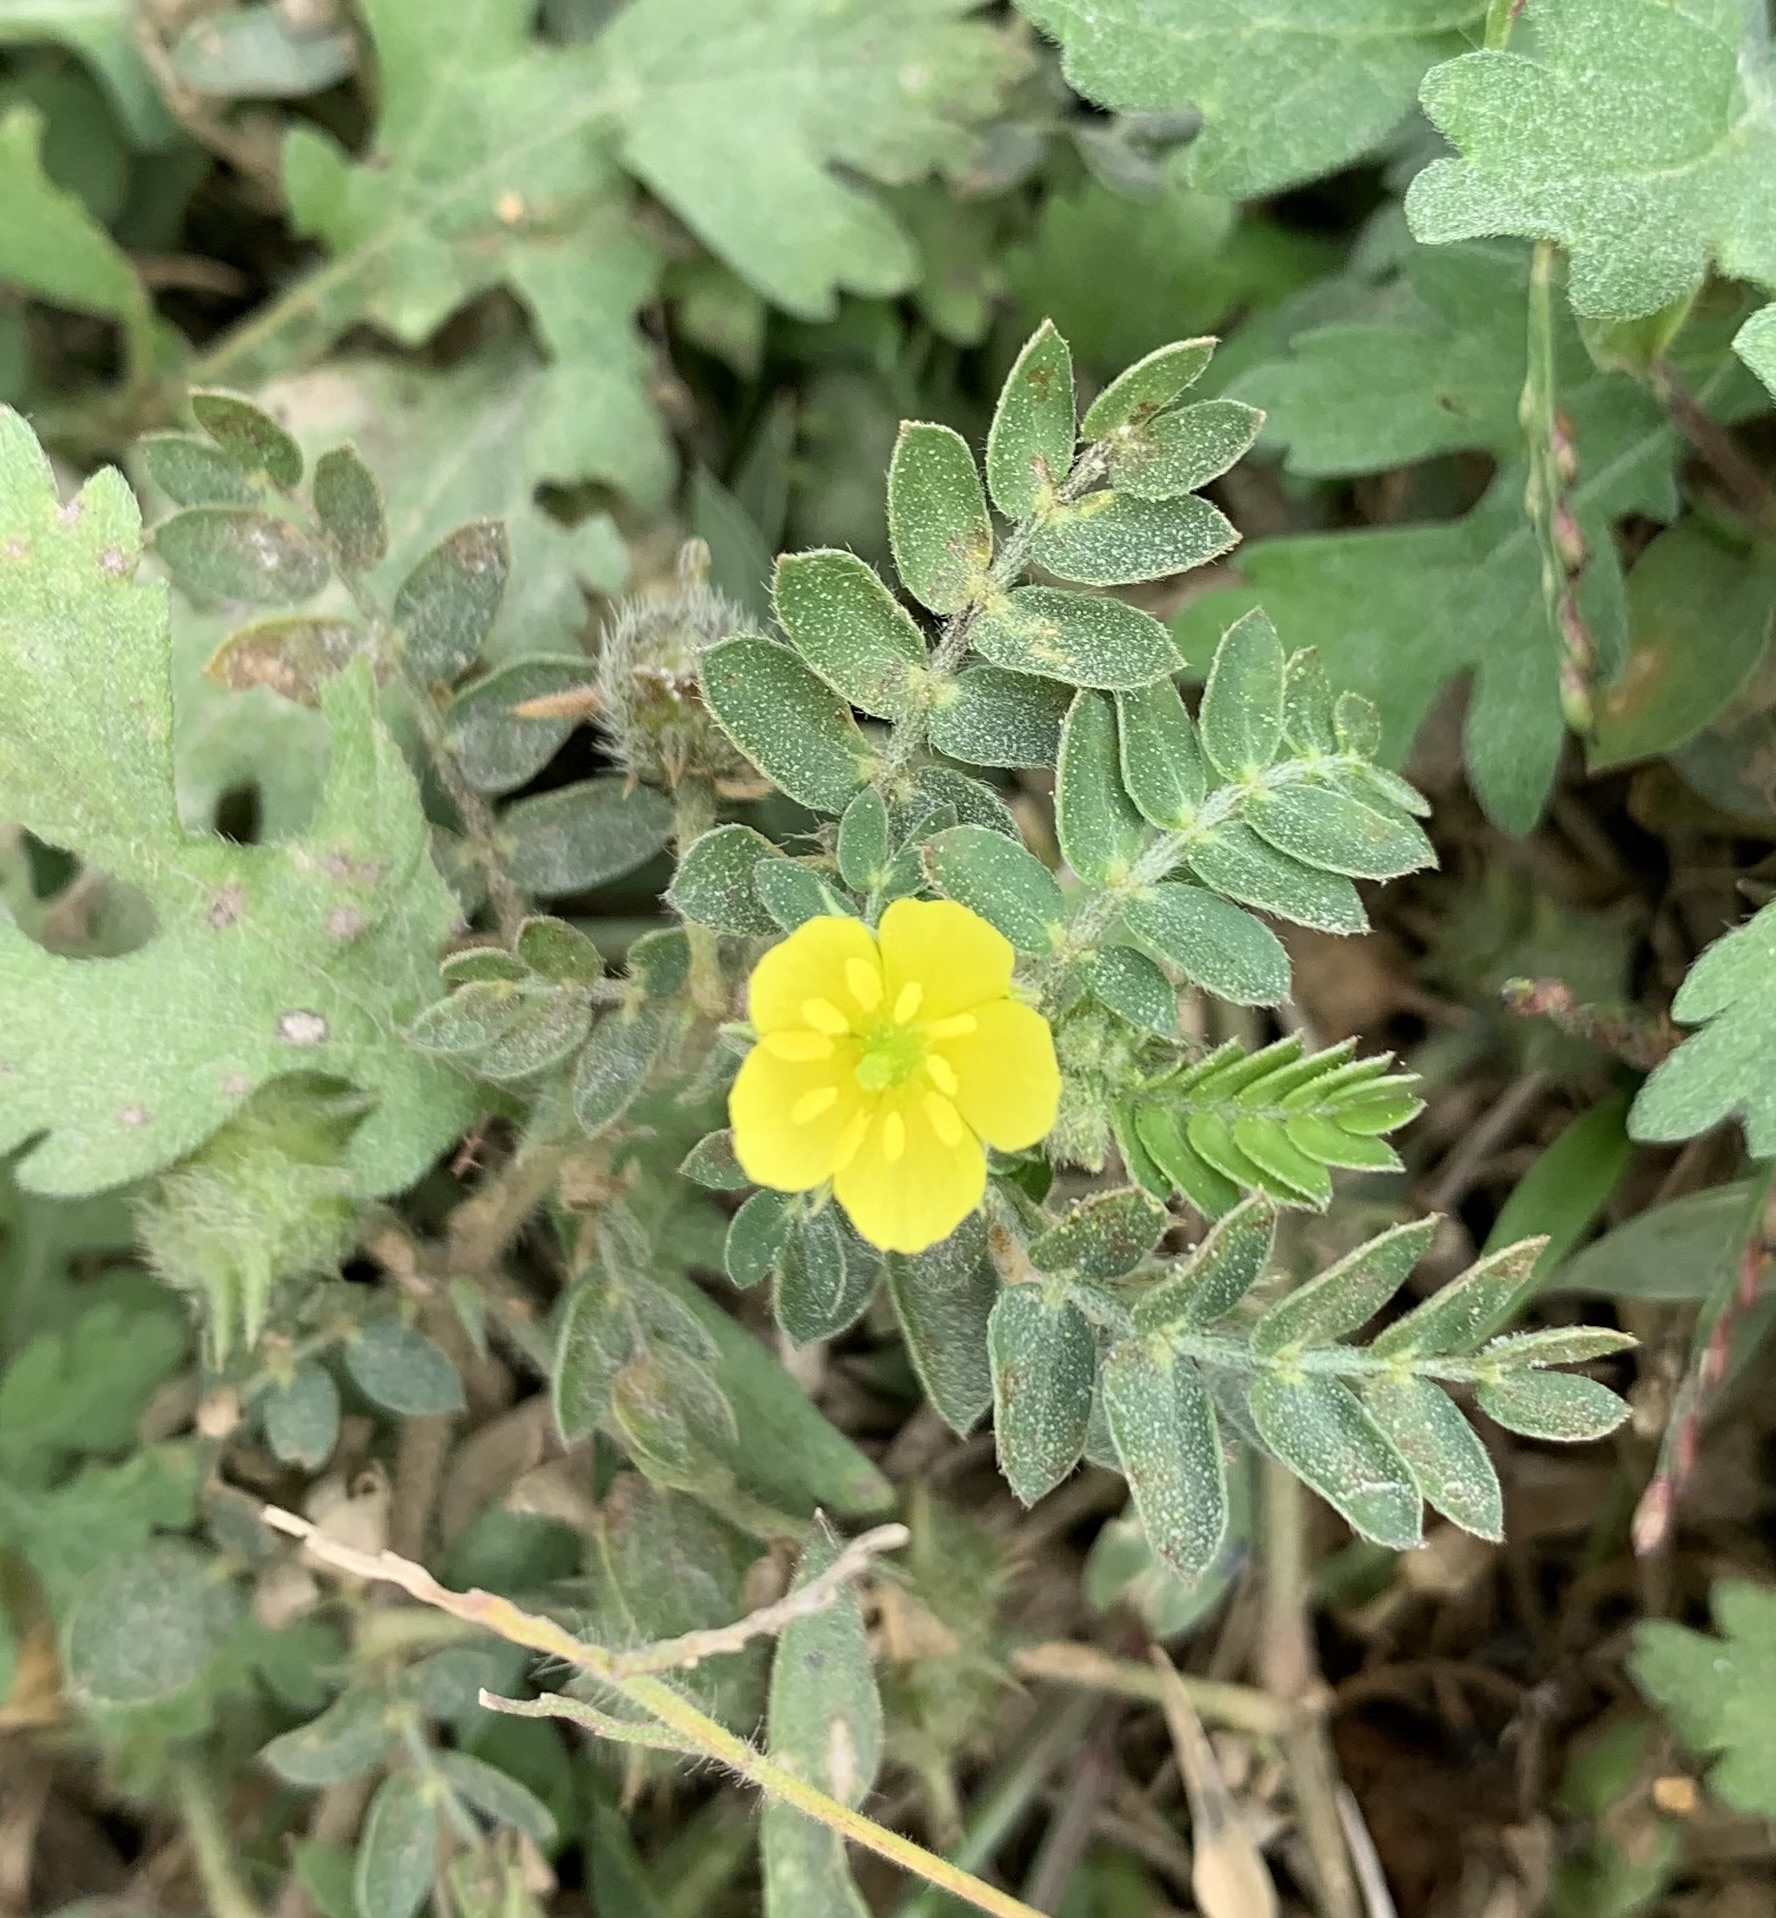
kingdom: Plantae
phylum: Tracheophyta
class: Magnoliopsida
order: Zygophyllales
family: Zygophyllaceae
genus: Tribulus
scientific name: Tribulus terrestris
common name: Puncturevine
